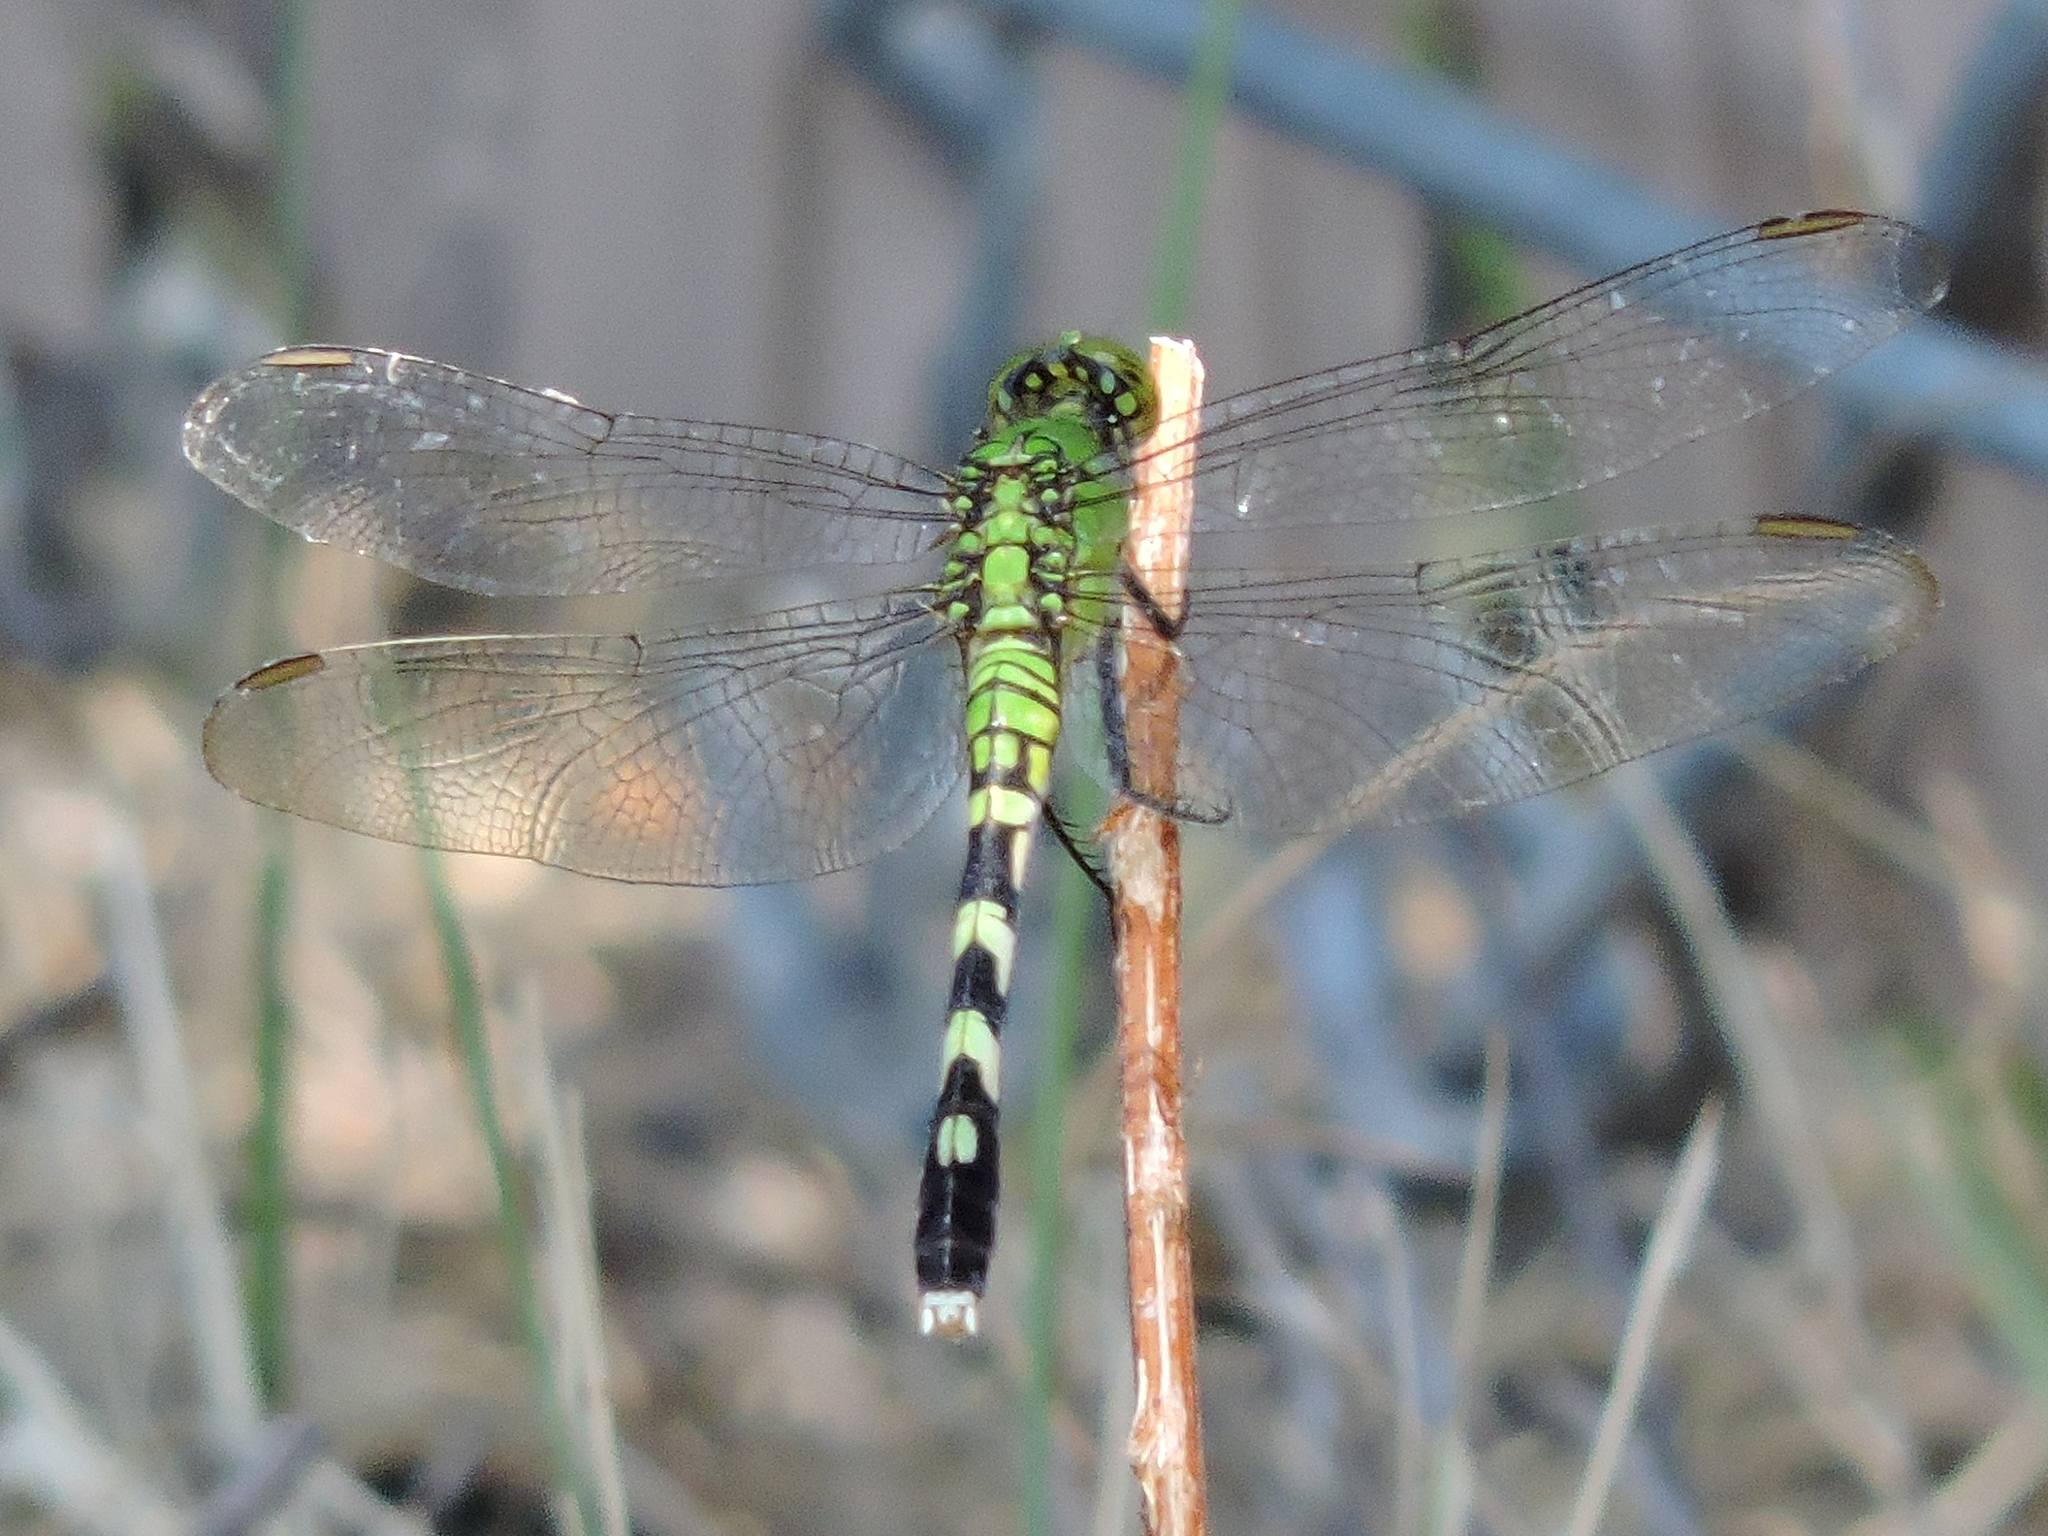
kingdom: Animalia
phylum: Arthropoda
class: Insecta
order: Odonata
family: Libellulidae
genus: Erythemis
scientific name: Erythemis simplicicollis
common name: Eastern pondhawk
